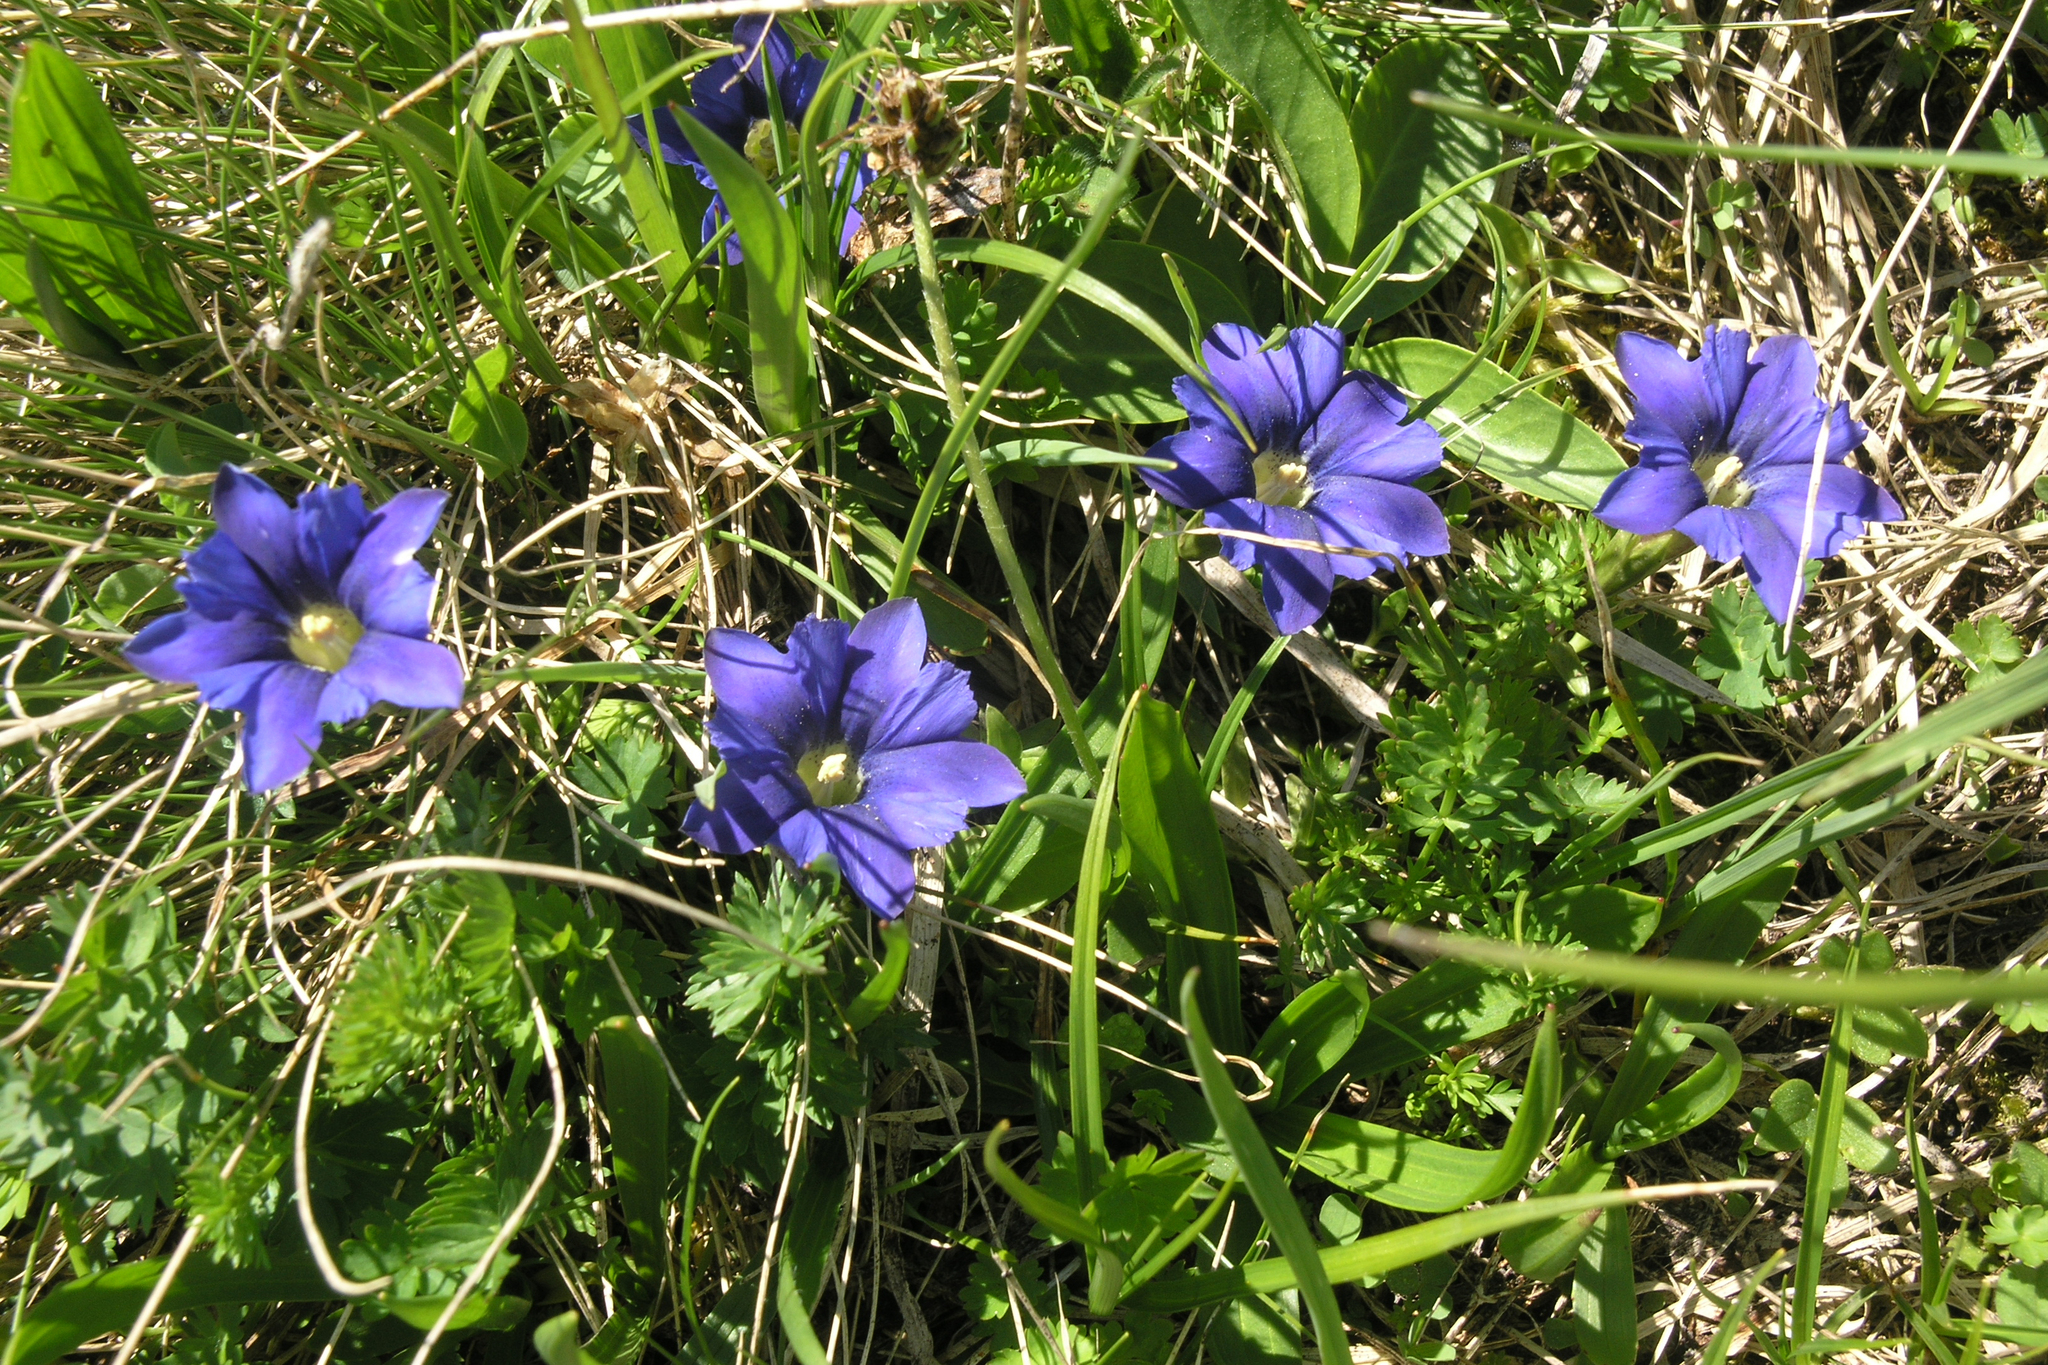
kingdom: Plantae
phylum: Tracheophyta
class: Magnoliopsida
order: Gentianales
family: Gentianaceae
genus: Gentiana
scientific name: Gentiana dshimilensis
